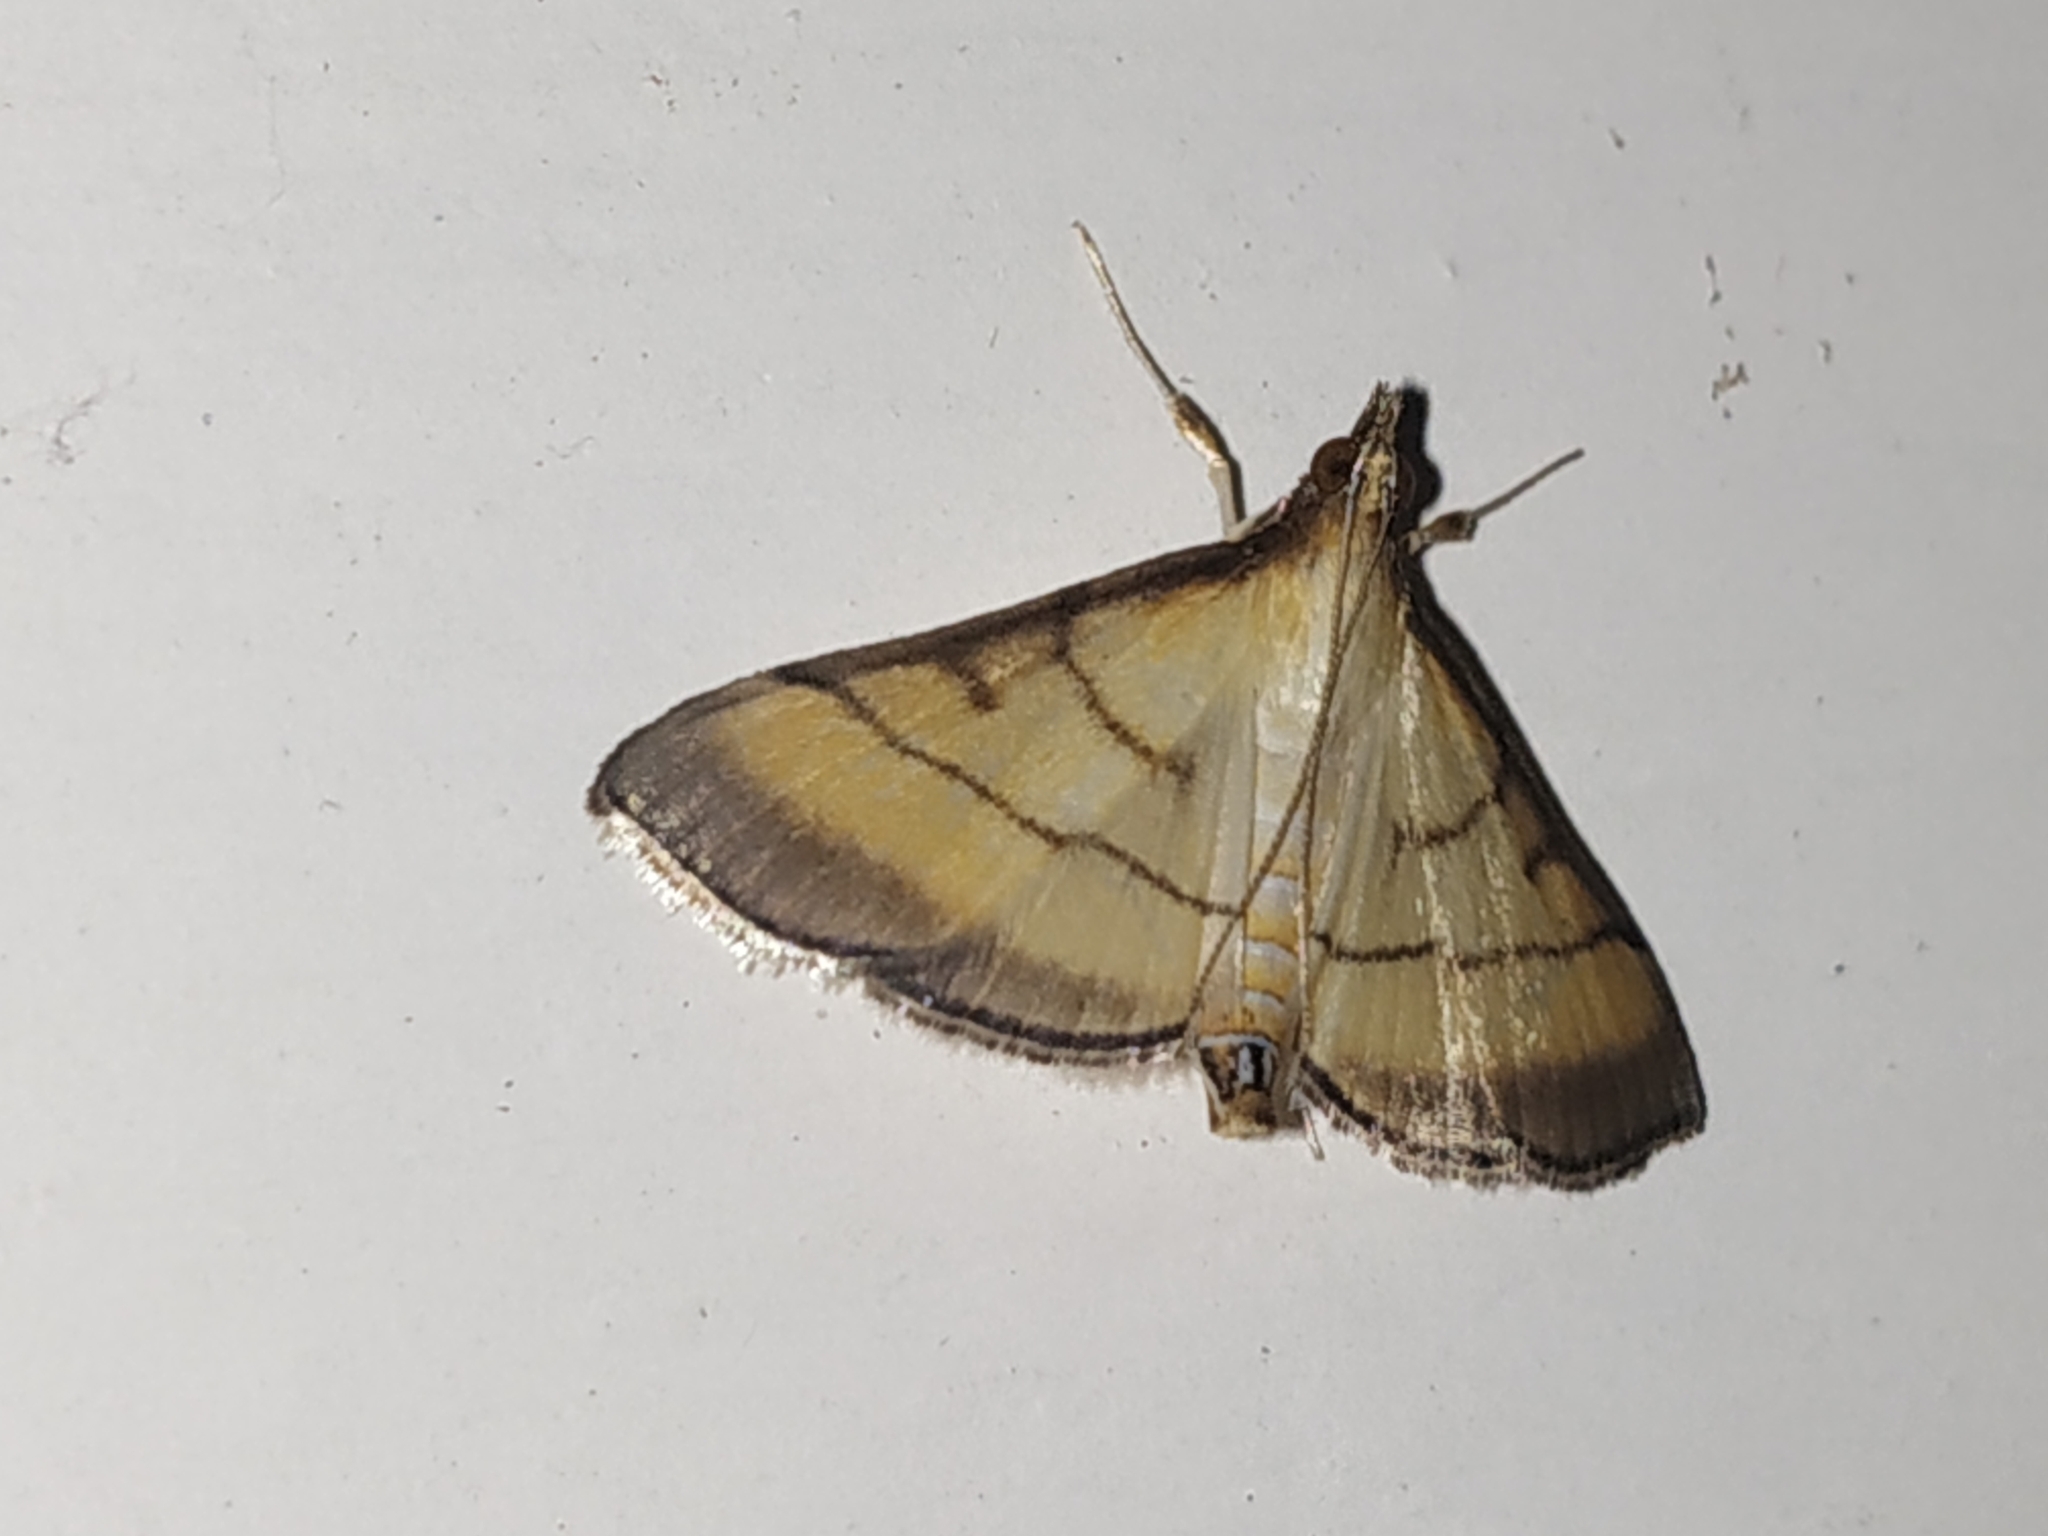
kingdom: Animalia
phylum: Arthropoda
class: Insecta
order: Lepidoptera
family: Crambidae
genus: Cnaphalocrocis
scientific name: Cnaphalocrocis medinalis
